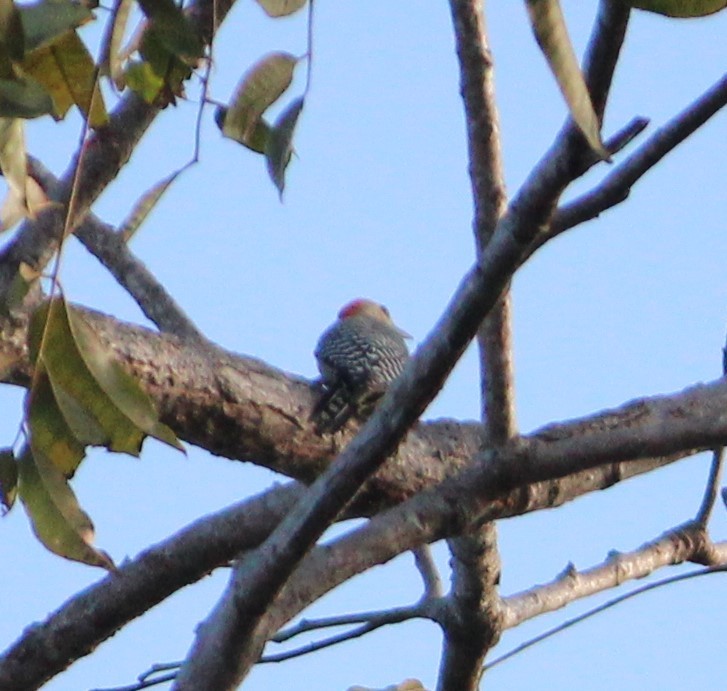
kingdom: Animalia
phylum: Chordata
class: Aves
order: Piciformes
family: Picidae
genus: Melanerpes
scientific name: Melanerpes rubricapillus
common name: Red-crowned woodpecker
